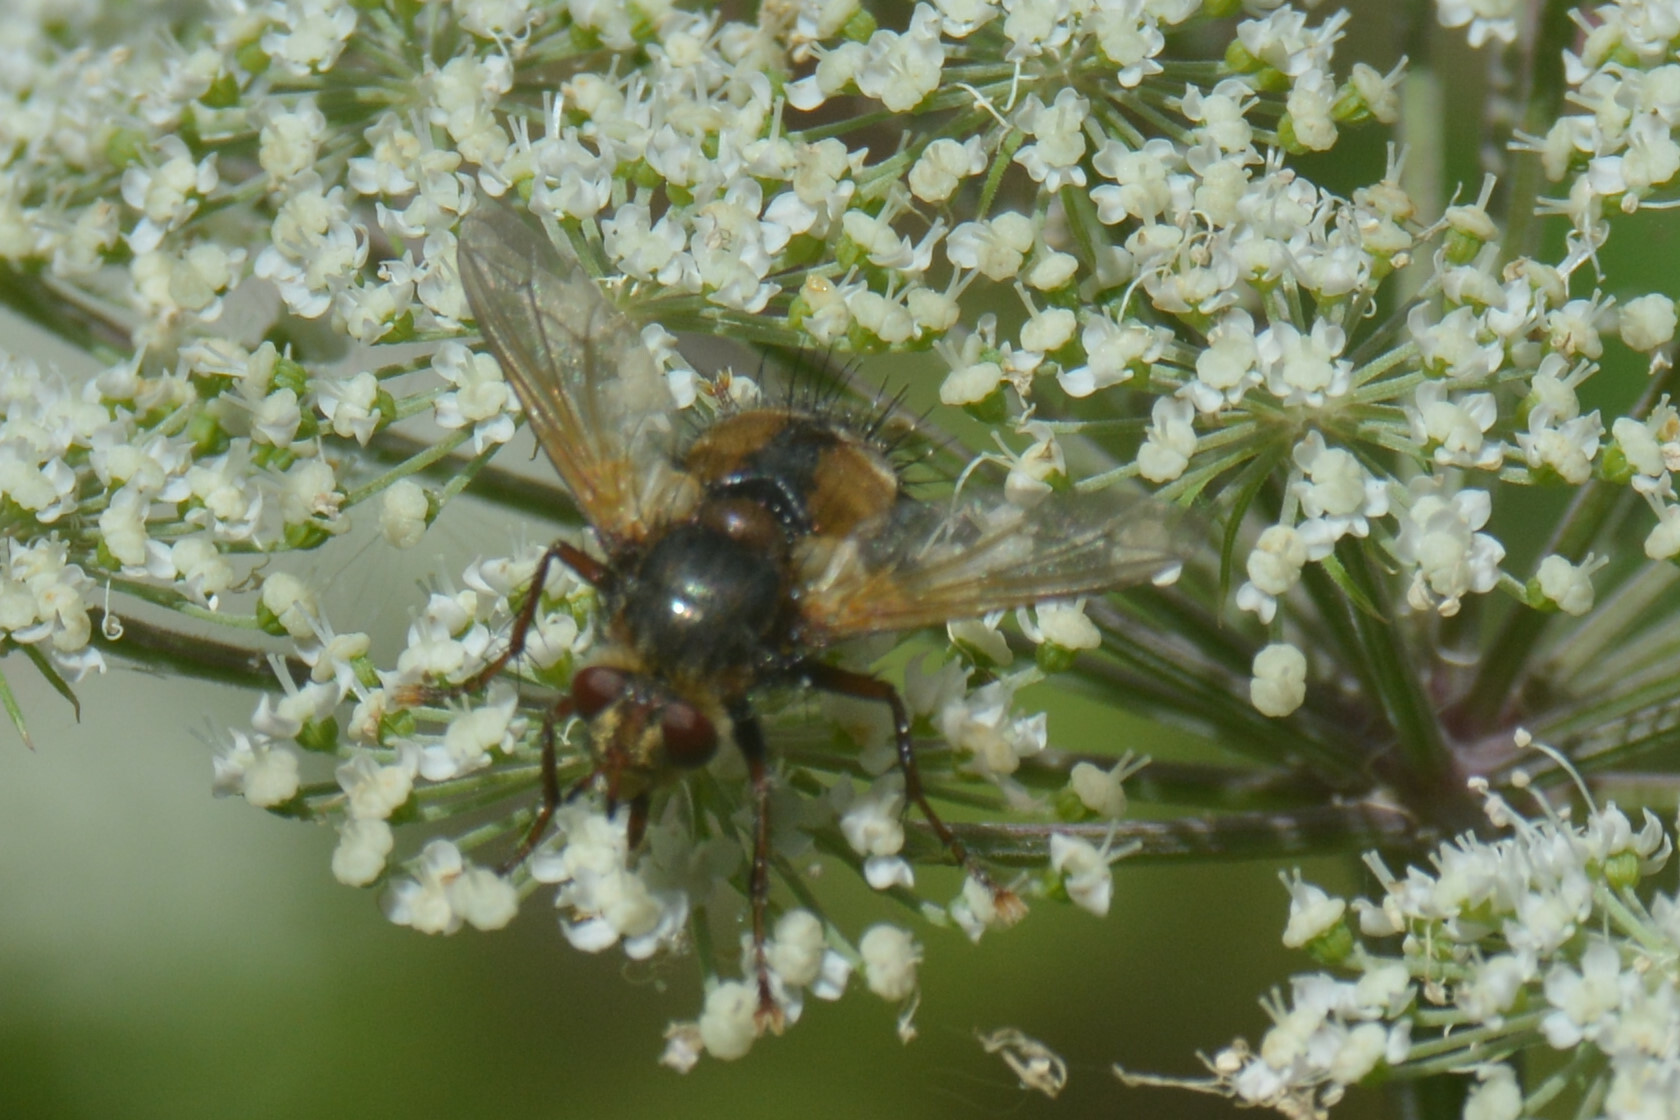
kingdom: Animalia
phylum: Arthropoda
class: Insecta
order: Diptera
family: Tachinidae
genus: Tachina
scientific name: Tachina fera
